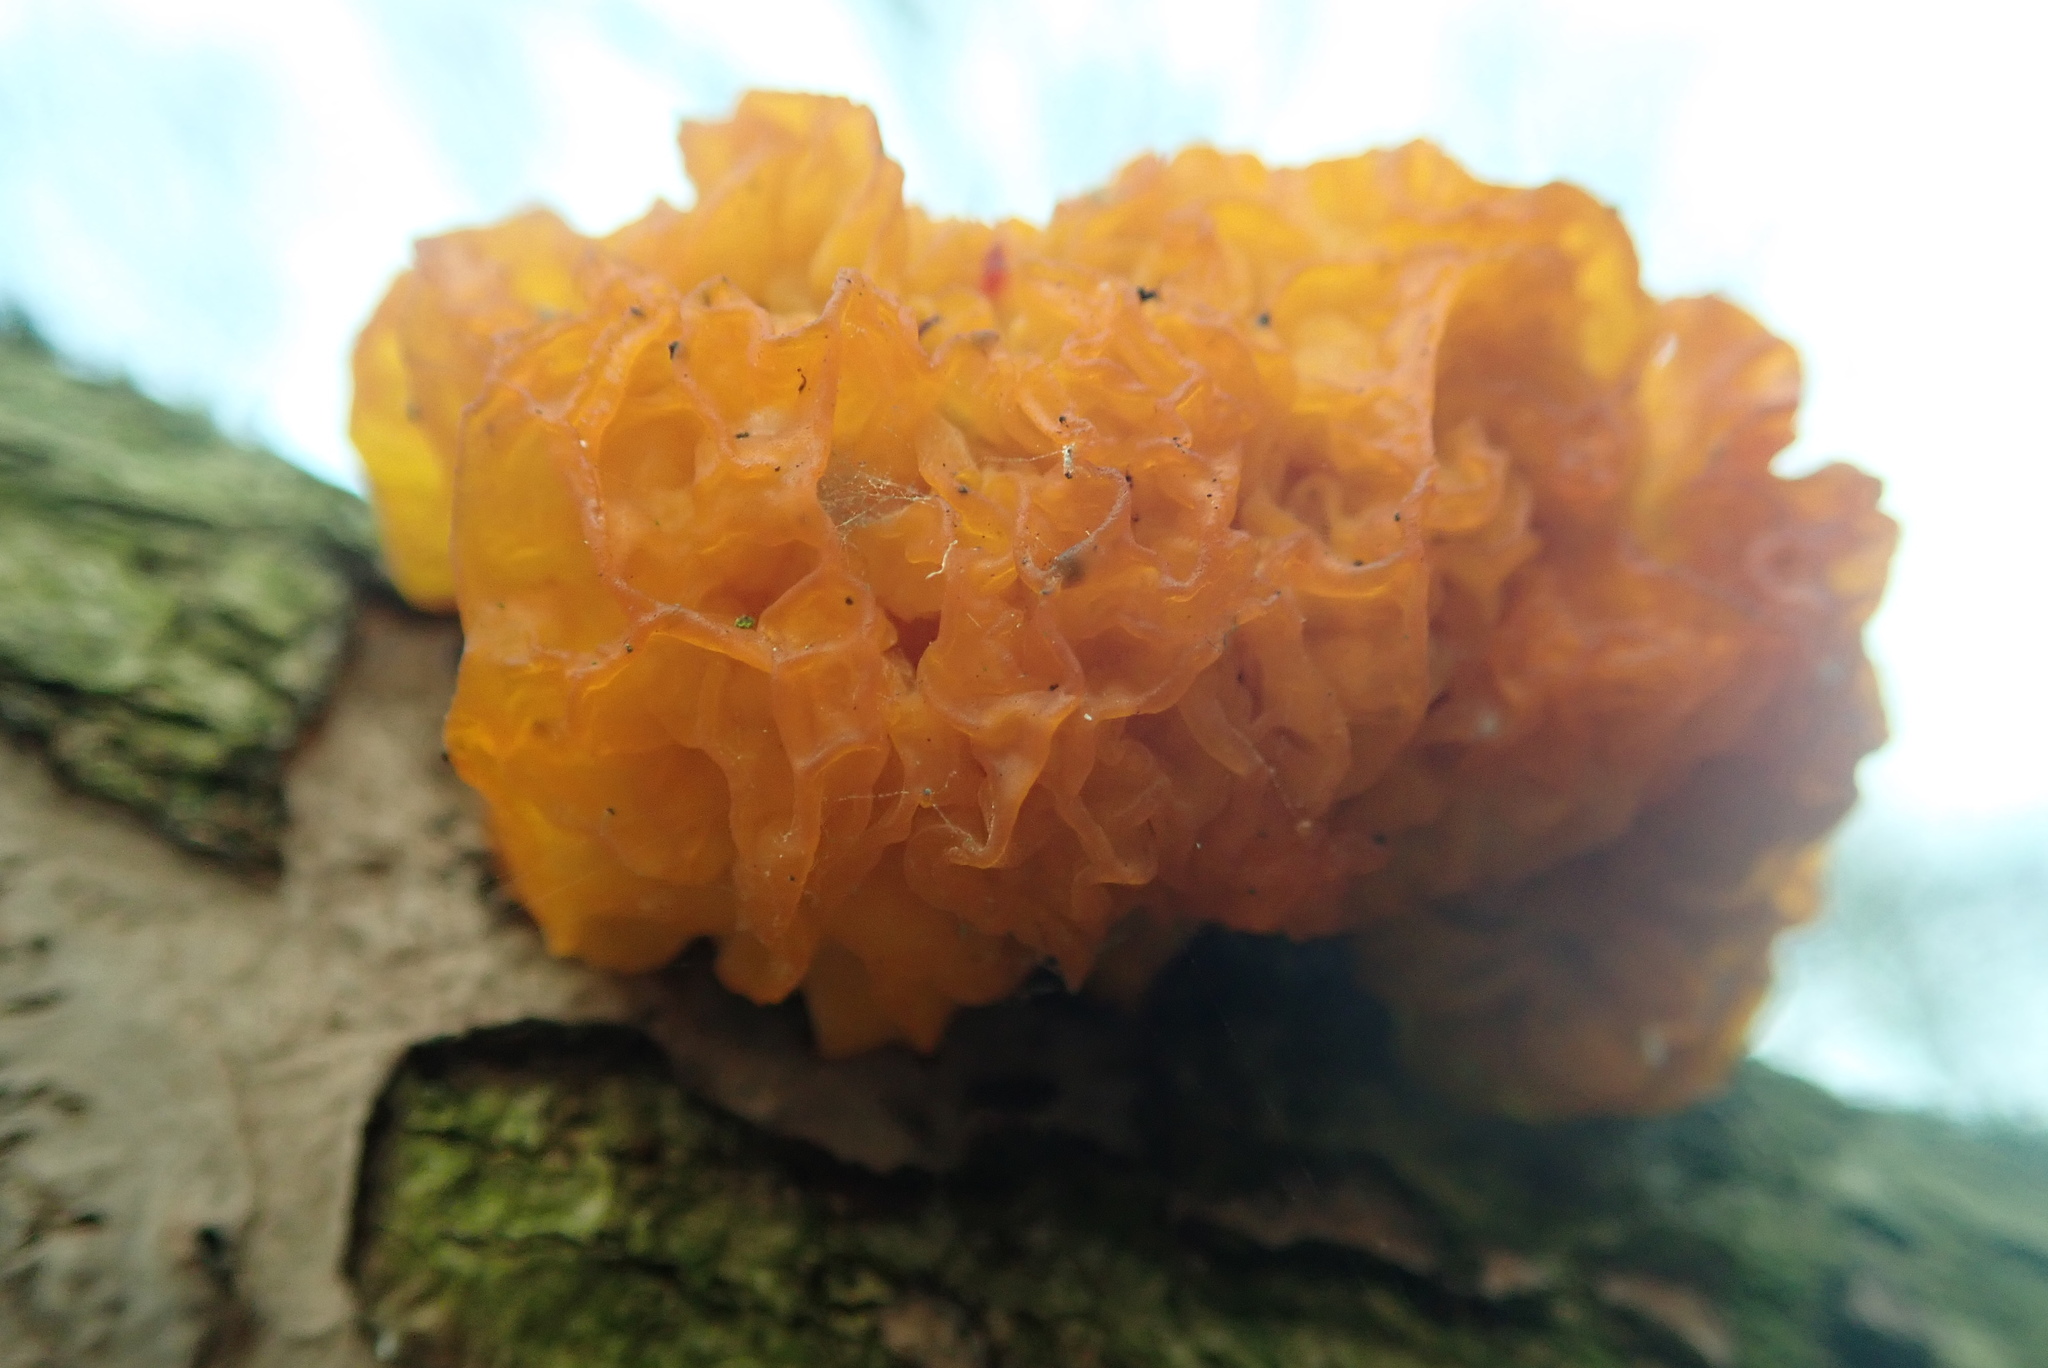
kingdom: Fungi
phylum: Basidiomycota
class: Tremellomycetes
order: Tremellales
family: Tremellaceae
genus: Tremella
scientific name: Tremella mesenterica
